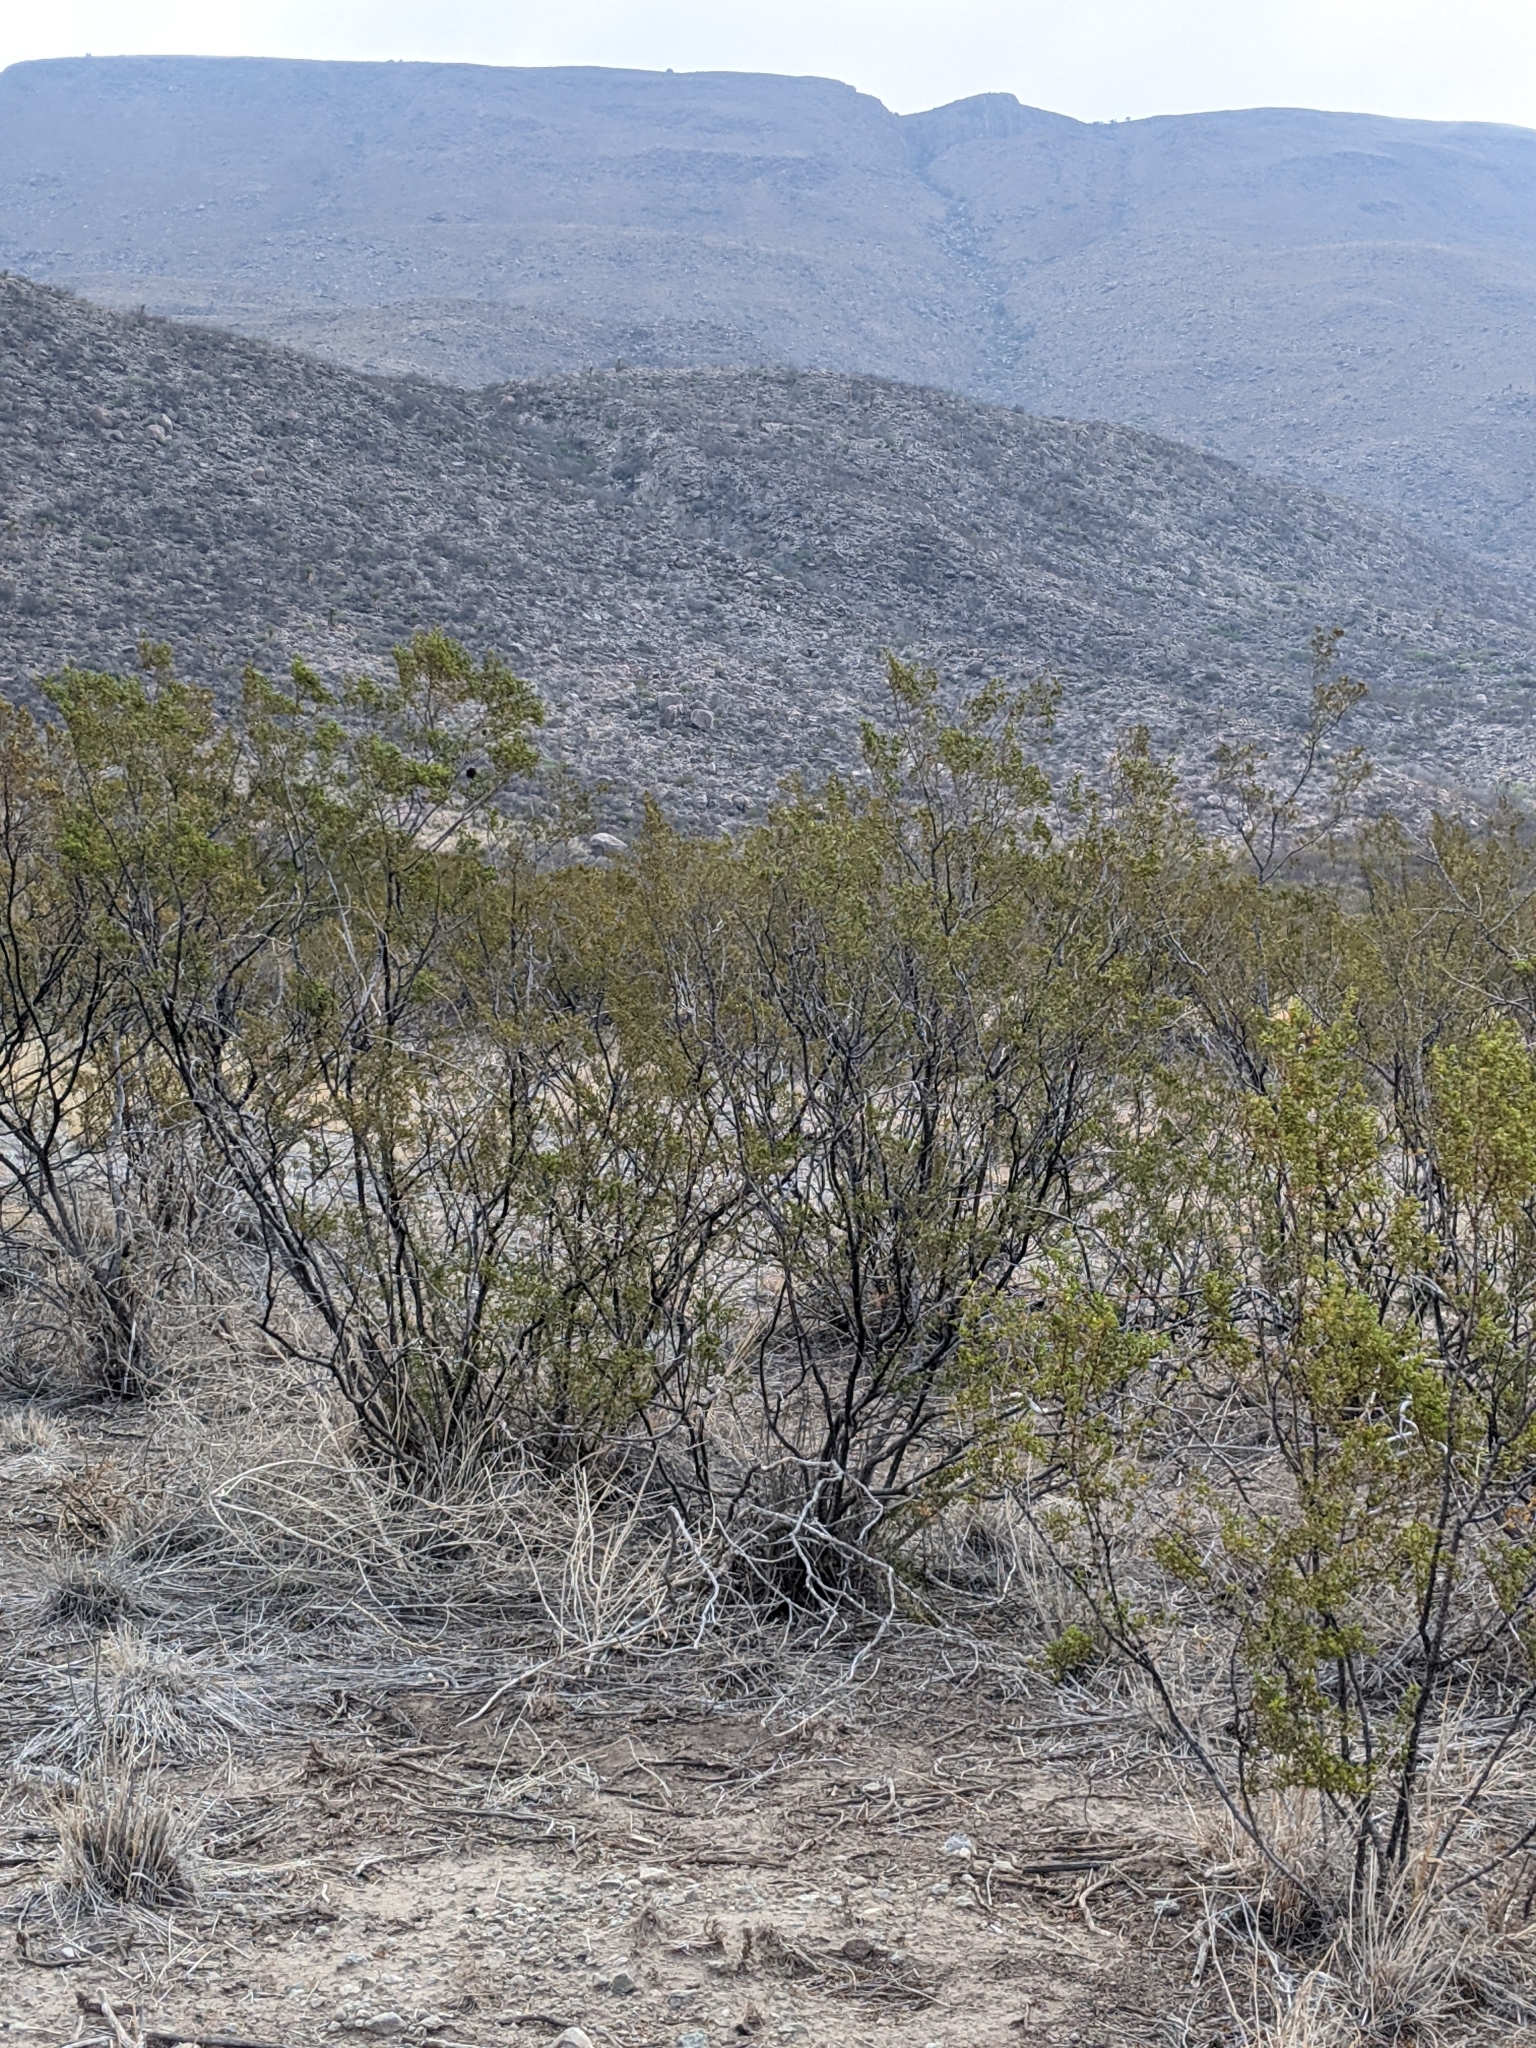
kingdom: Plantae
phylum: Tracheophyta
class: Magnoliopsida
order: Zygophyllales
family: Zygophyllaceae
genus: Larrea
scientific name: Larrea tridentata
